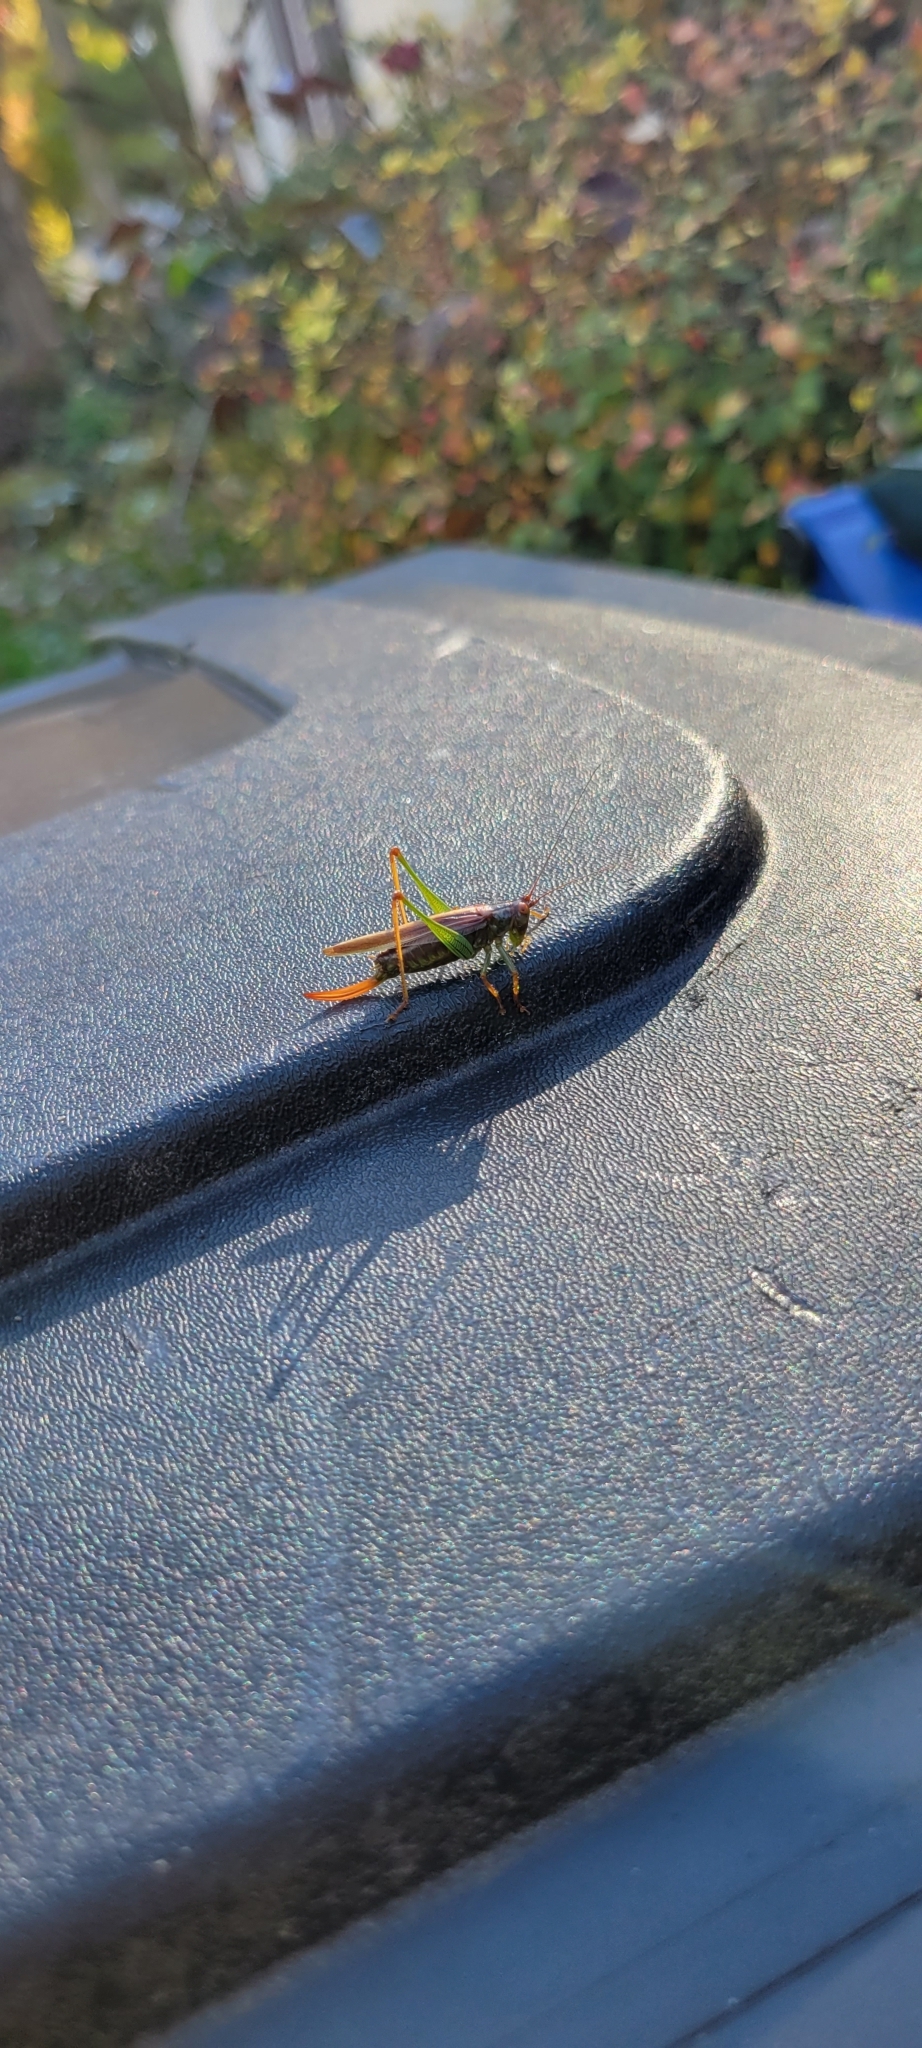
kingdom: Animalia
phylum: Arthropoda
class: Insecta
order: Orthoptera
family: Tettigoniidae
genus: Orchelimum
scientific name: Orchelimum minor
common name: Lesser pine meadow katydid
